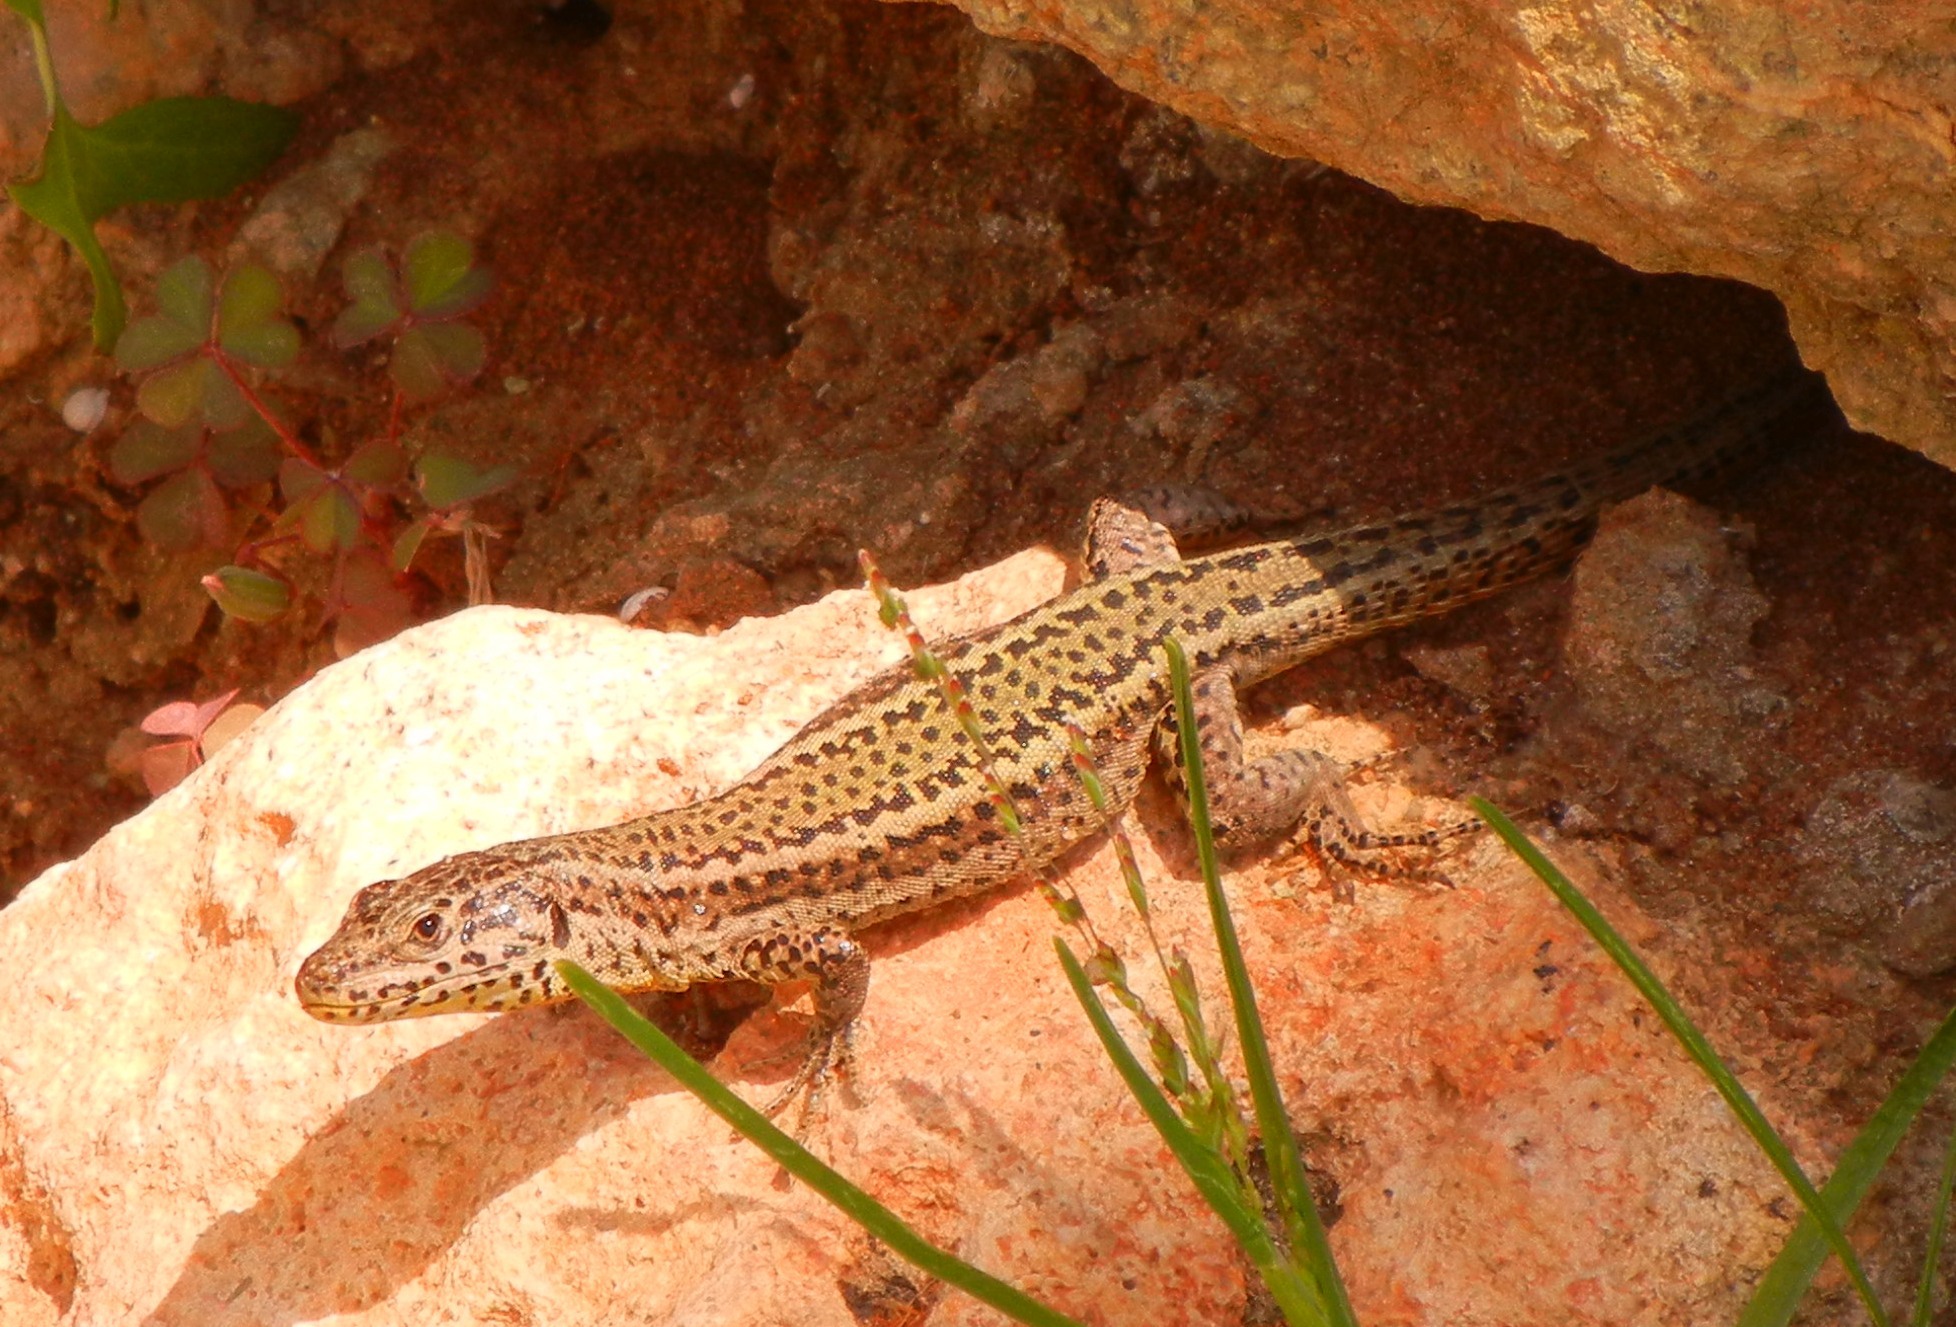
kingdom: Animalia
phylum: Chordata
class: Squamata
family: Lacertidae
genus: Podarcis
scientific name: Podarcis vaucheri
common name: Vaucher's wall lizard
